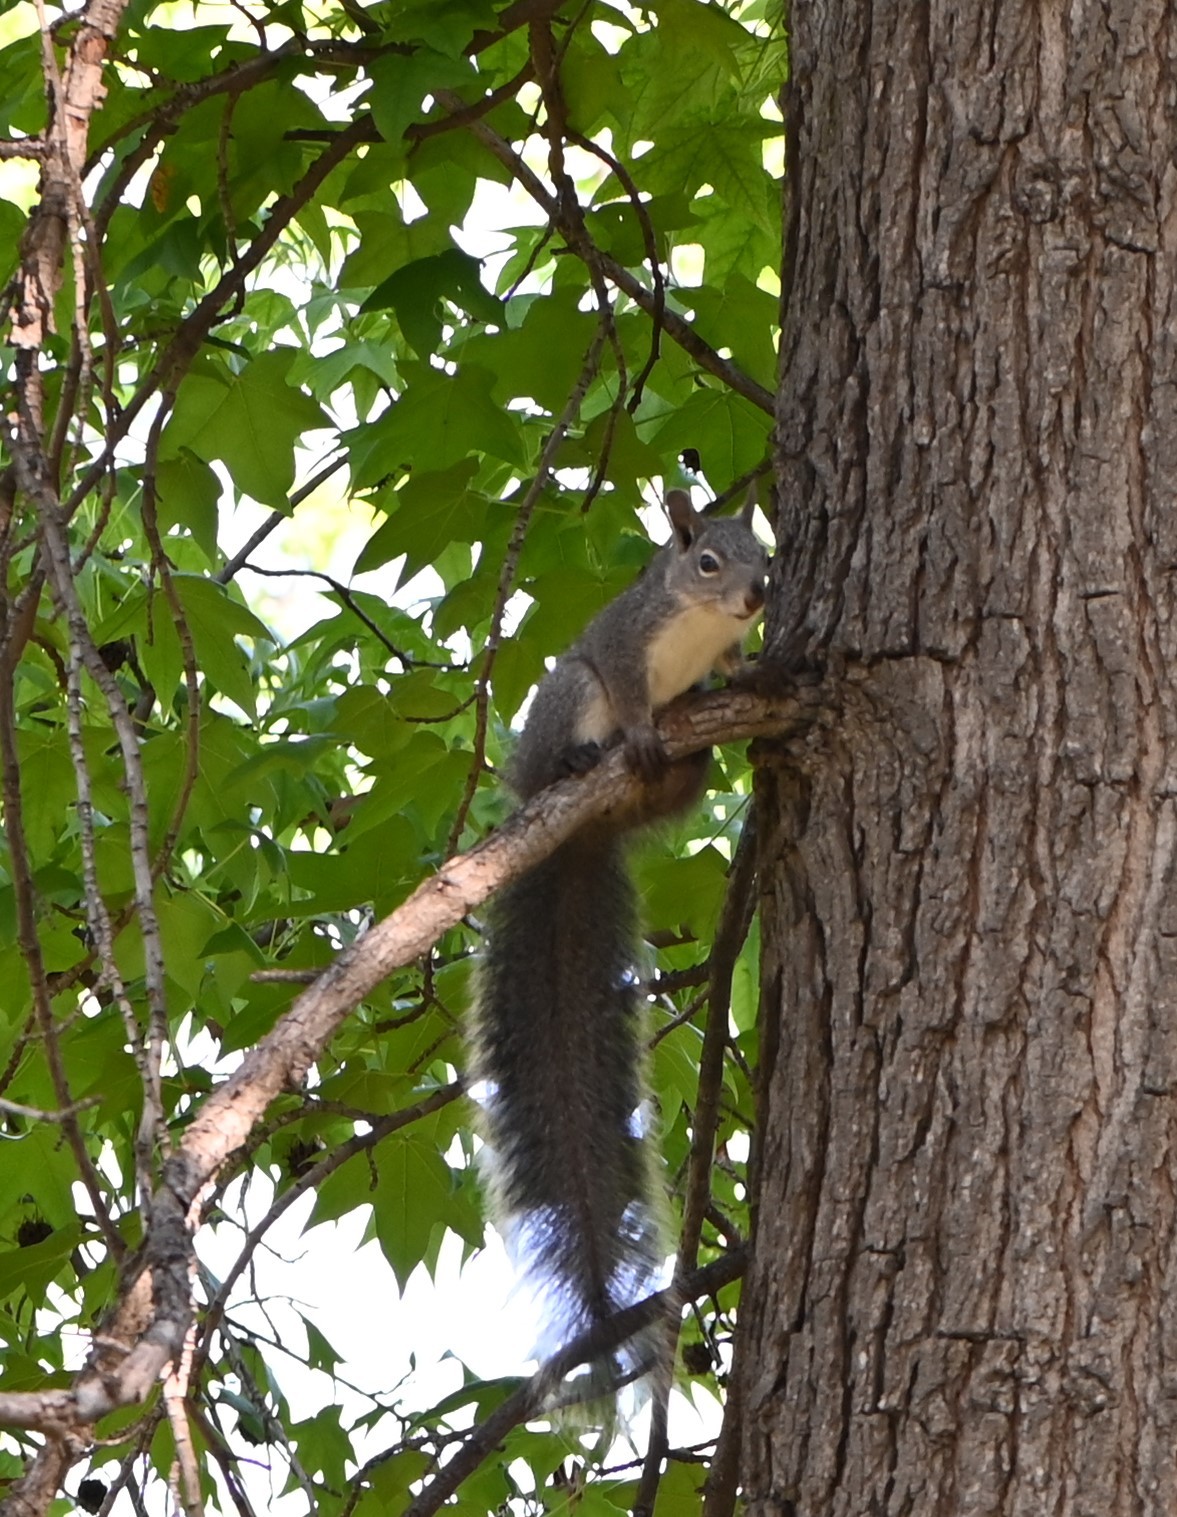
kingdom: Animalia
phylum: Chordata
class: Mammalia
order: Rodentia
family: Sciuridae
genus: Sciurus
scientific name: Sciurus griseus
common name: Western gray squirrel
